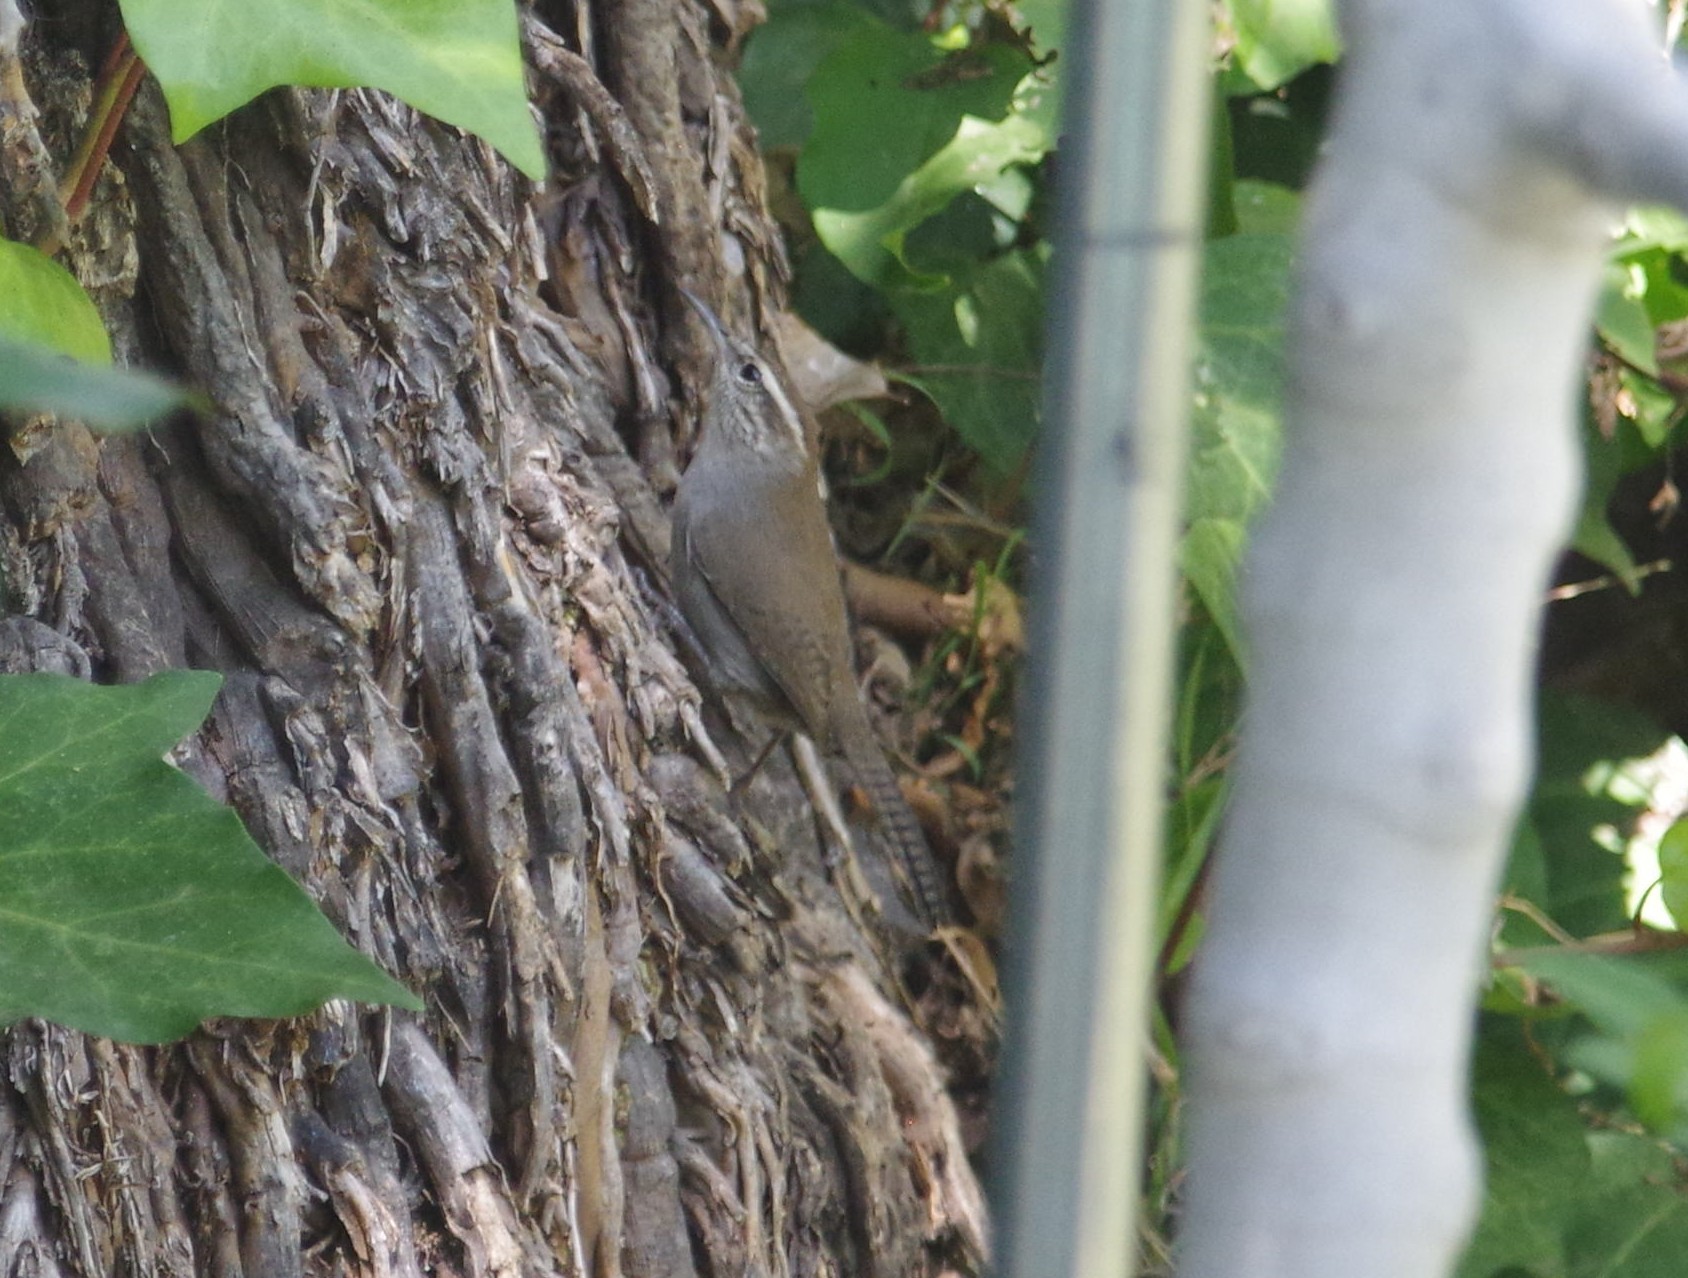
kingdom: Animalia
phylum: Chordata
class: Aves
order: Passeriformes
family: Troglodytidae
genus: Thryomanes
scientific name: Thryomanes bewickii
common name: Bewick's wren
